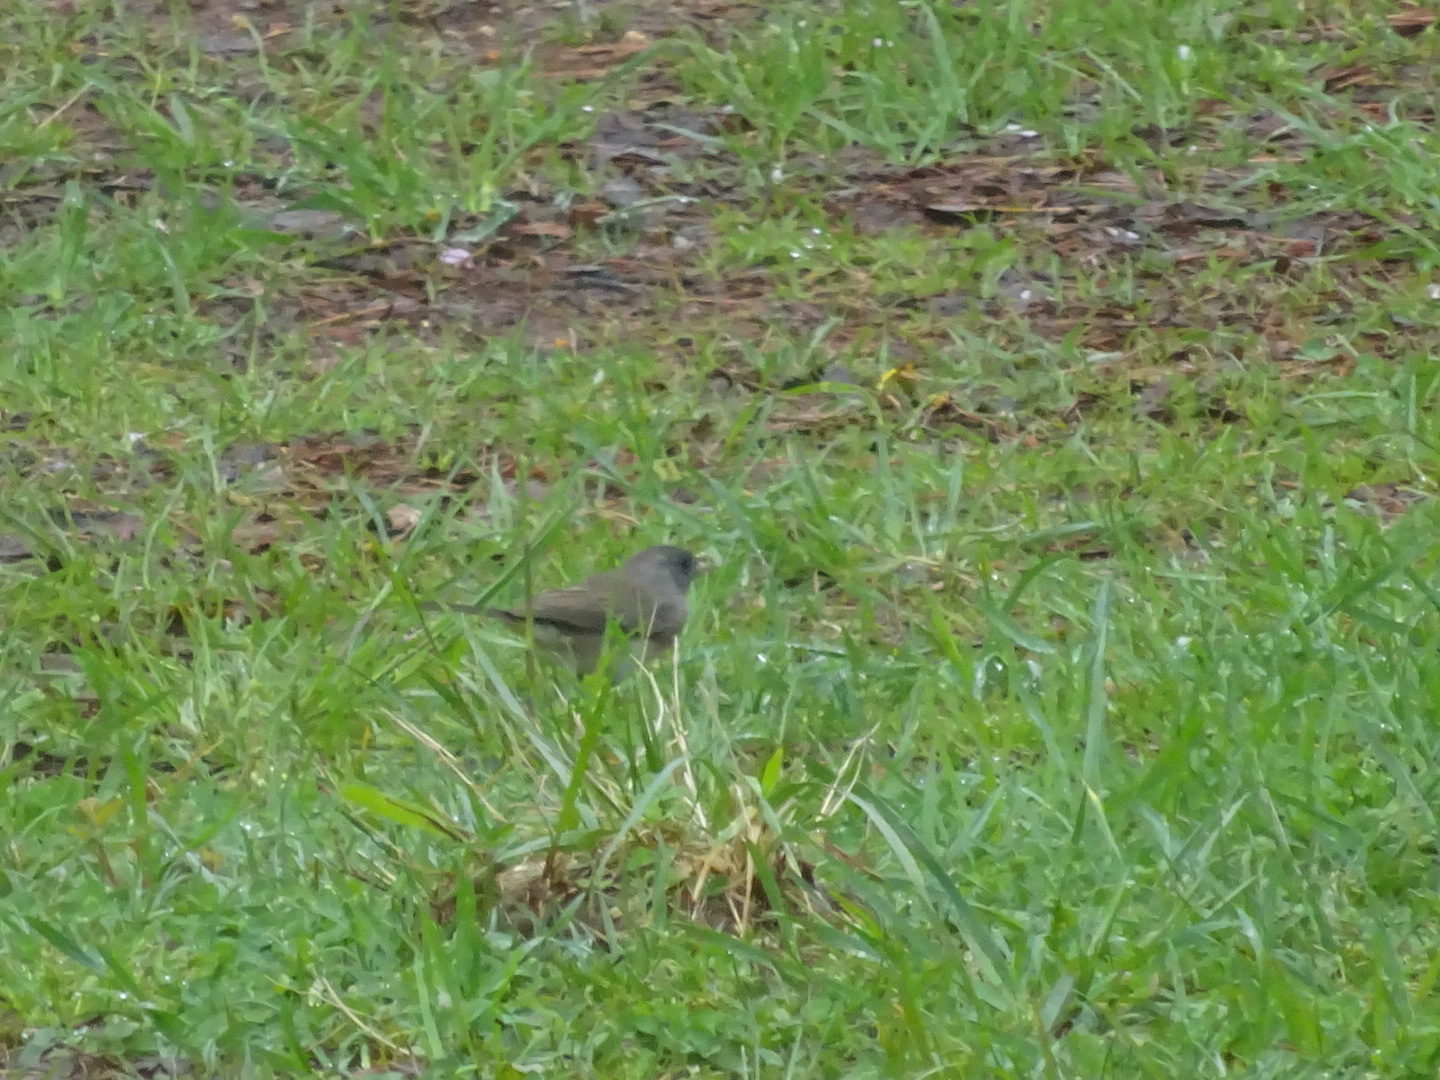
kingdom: Animalia
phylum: Chordata
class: Aves
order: Passeriformes
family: Passerellidae
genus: Junco
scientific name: Junco hyemalis
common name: Dark-eyed junco
